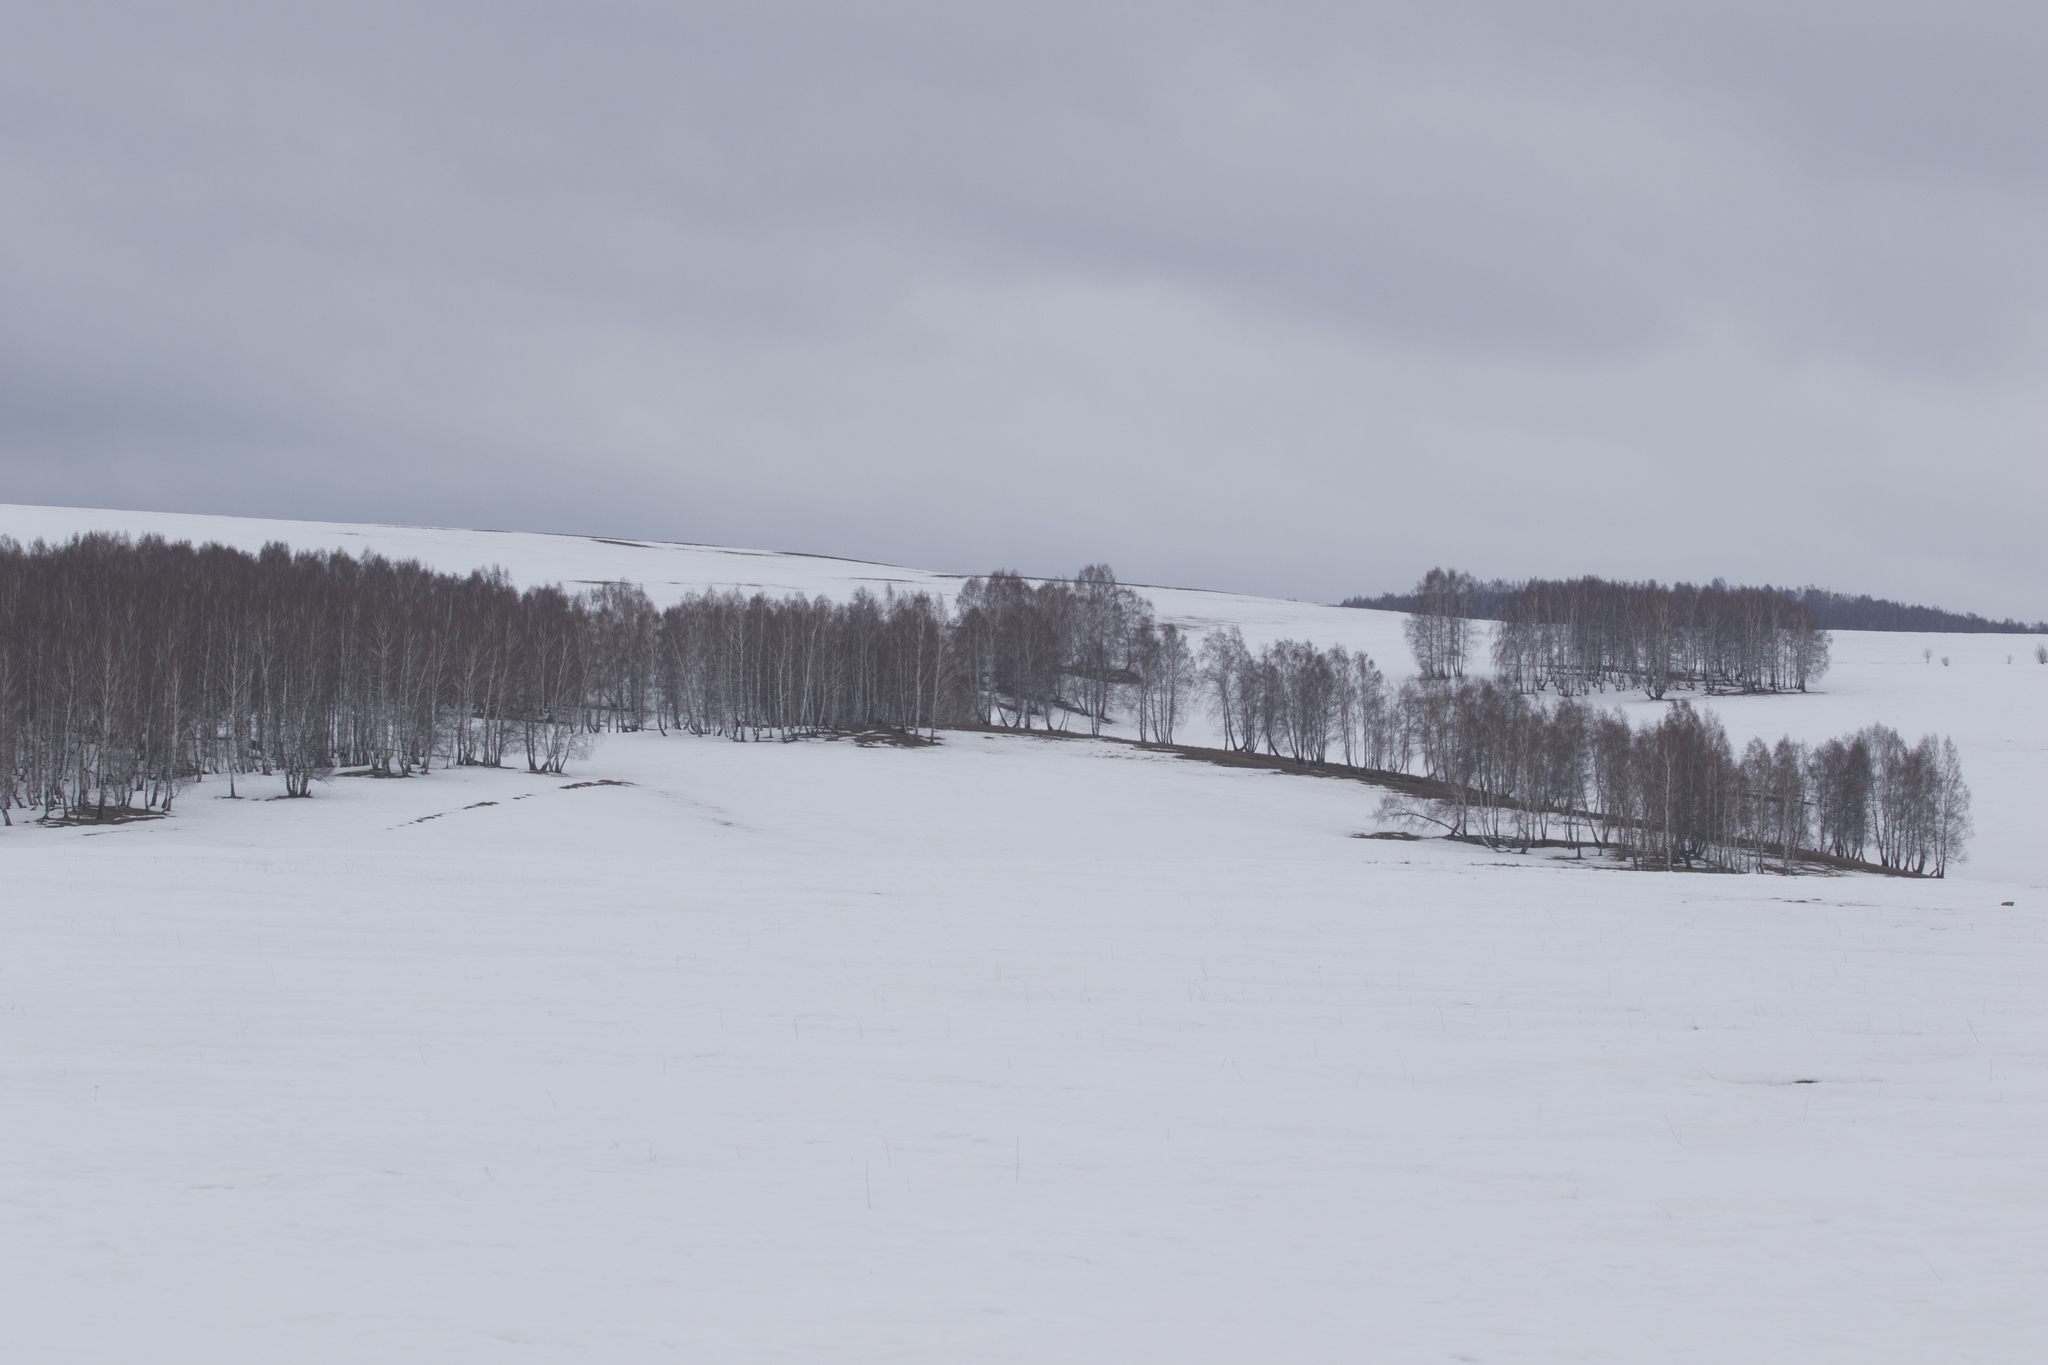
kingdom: Plantae
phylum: Tracheophyta
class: Magnoliopsida
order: Fagales
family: Betulaceae
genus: Betula
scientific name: Betula pendula
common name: Silver birch
